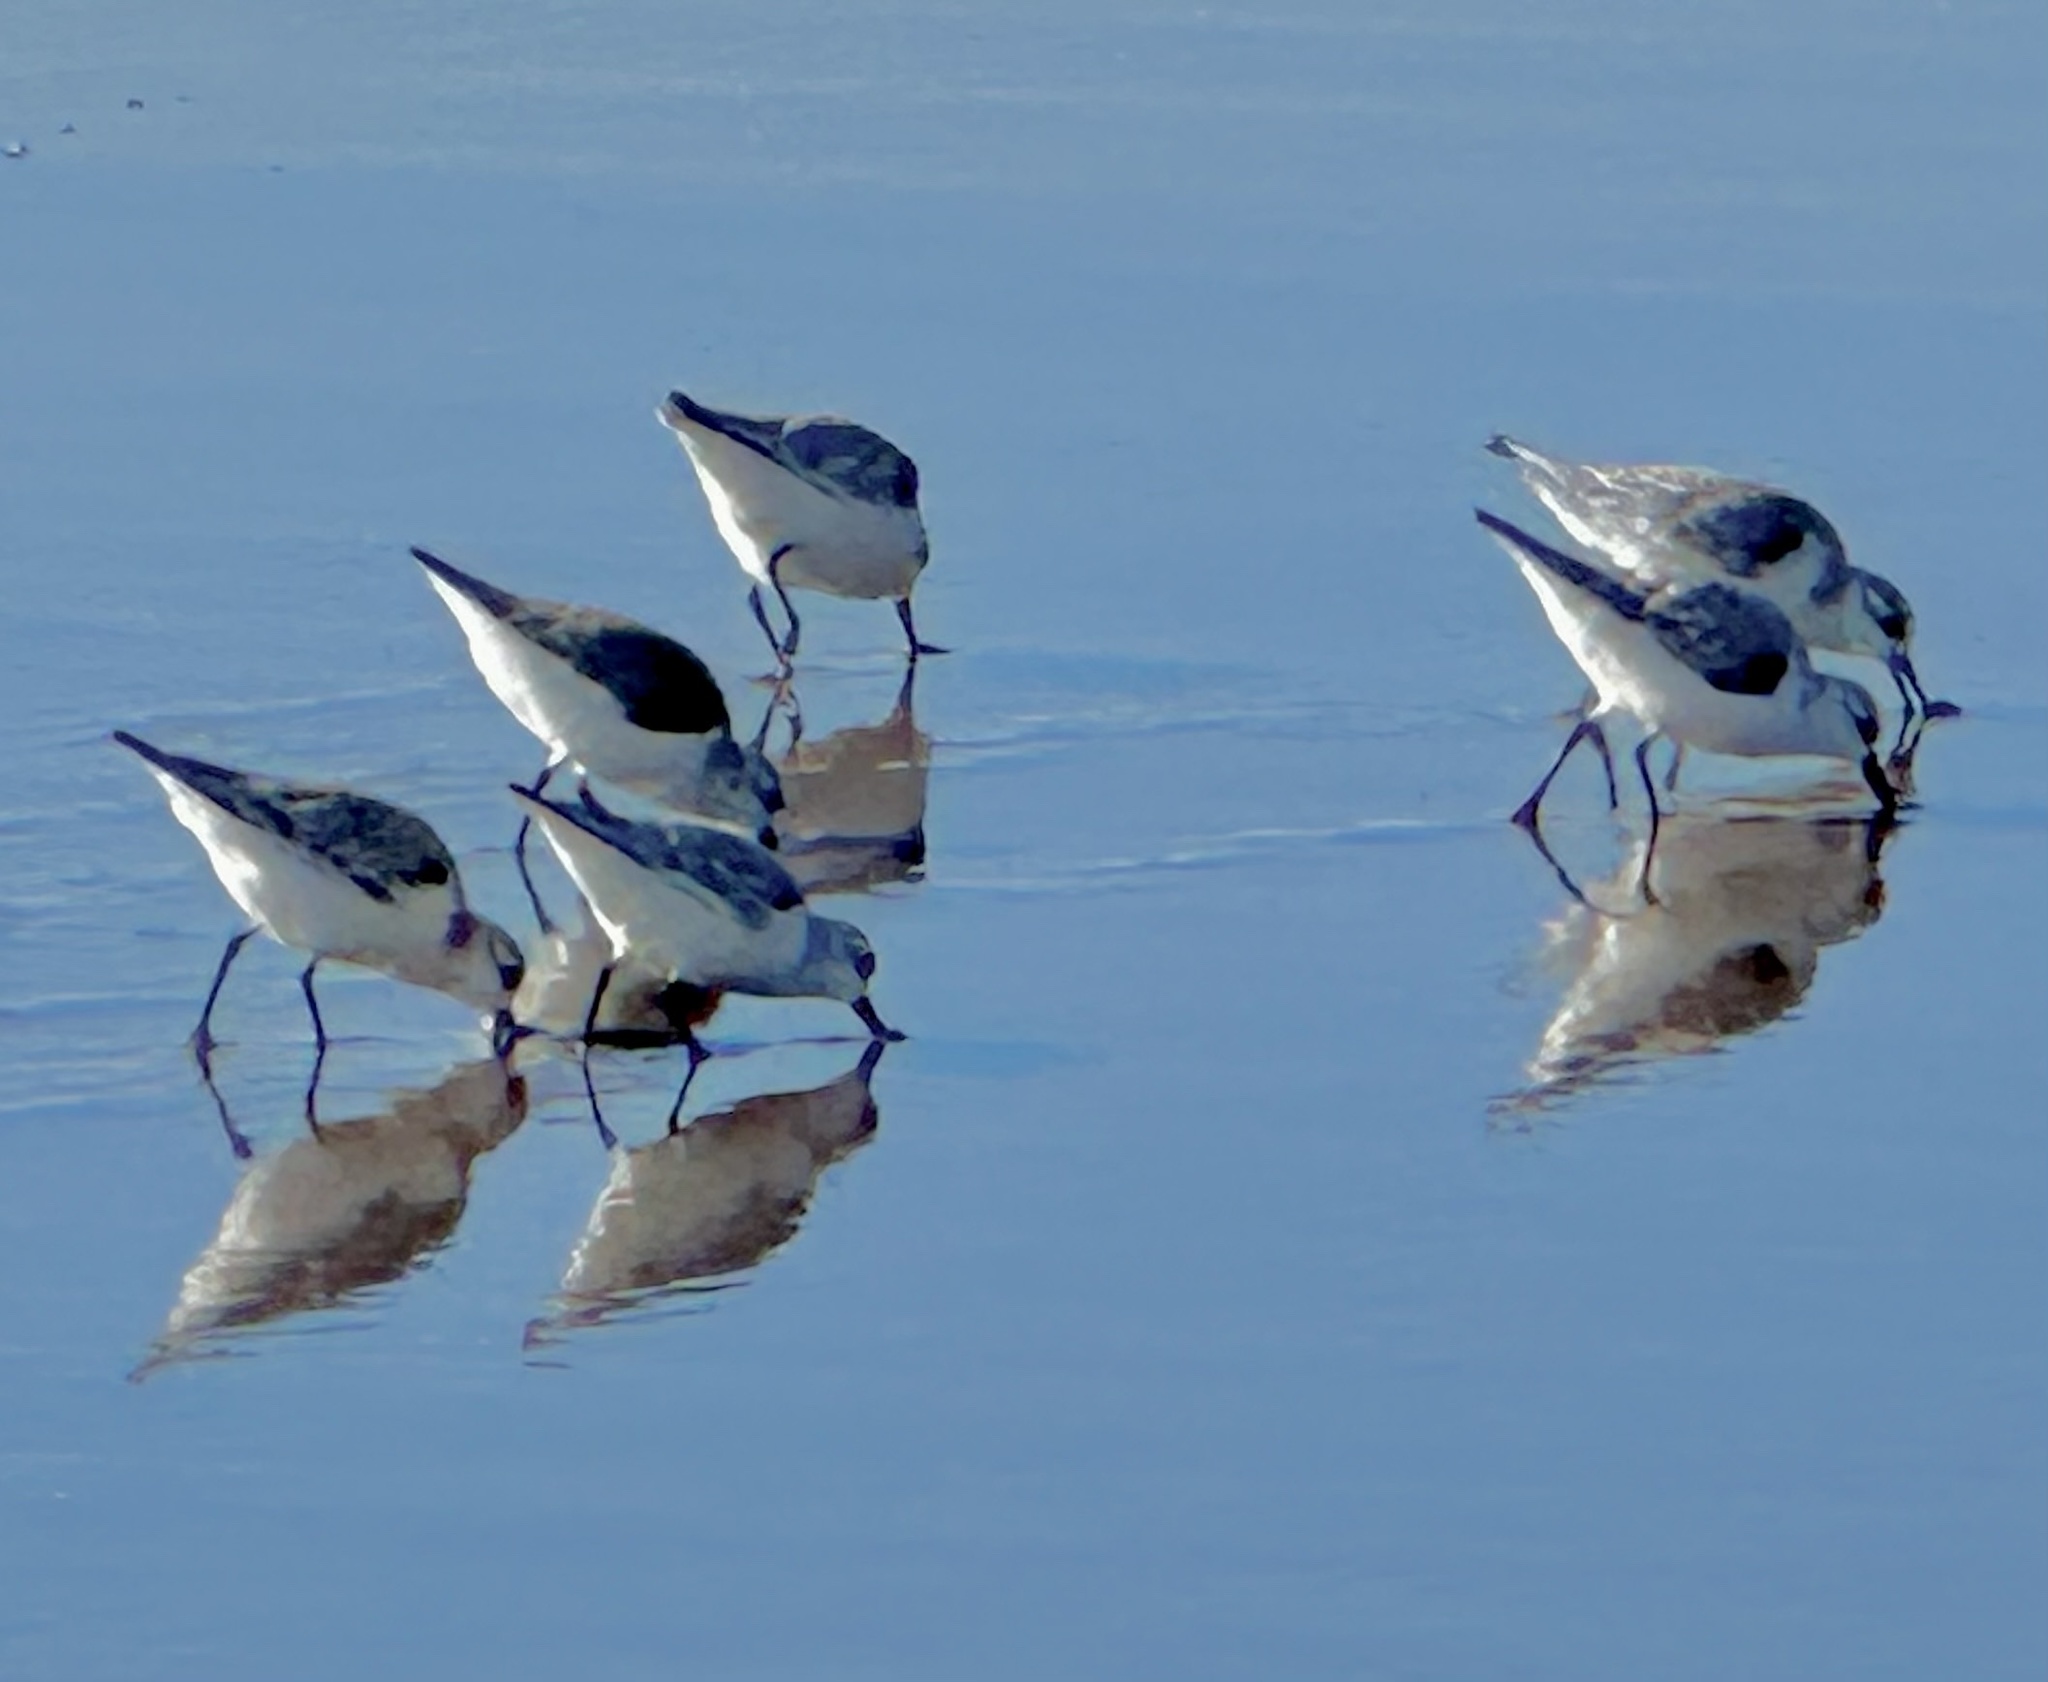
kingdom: Animalia
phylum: Chordata
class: Aves
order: Charadriiformes
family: Scolopacidae
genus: Calidris
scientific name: Calidris alba
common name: Sanderling
